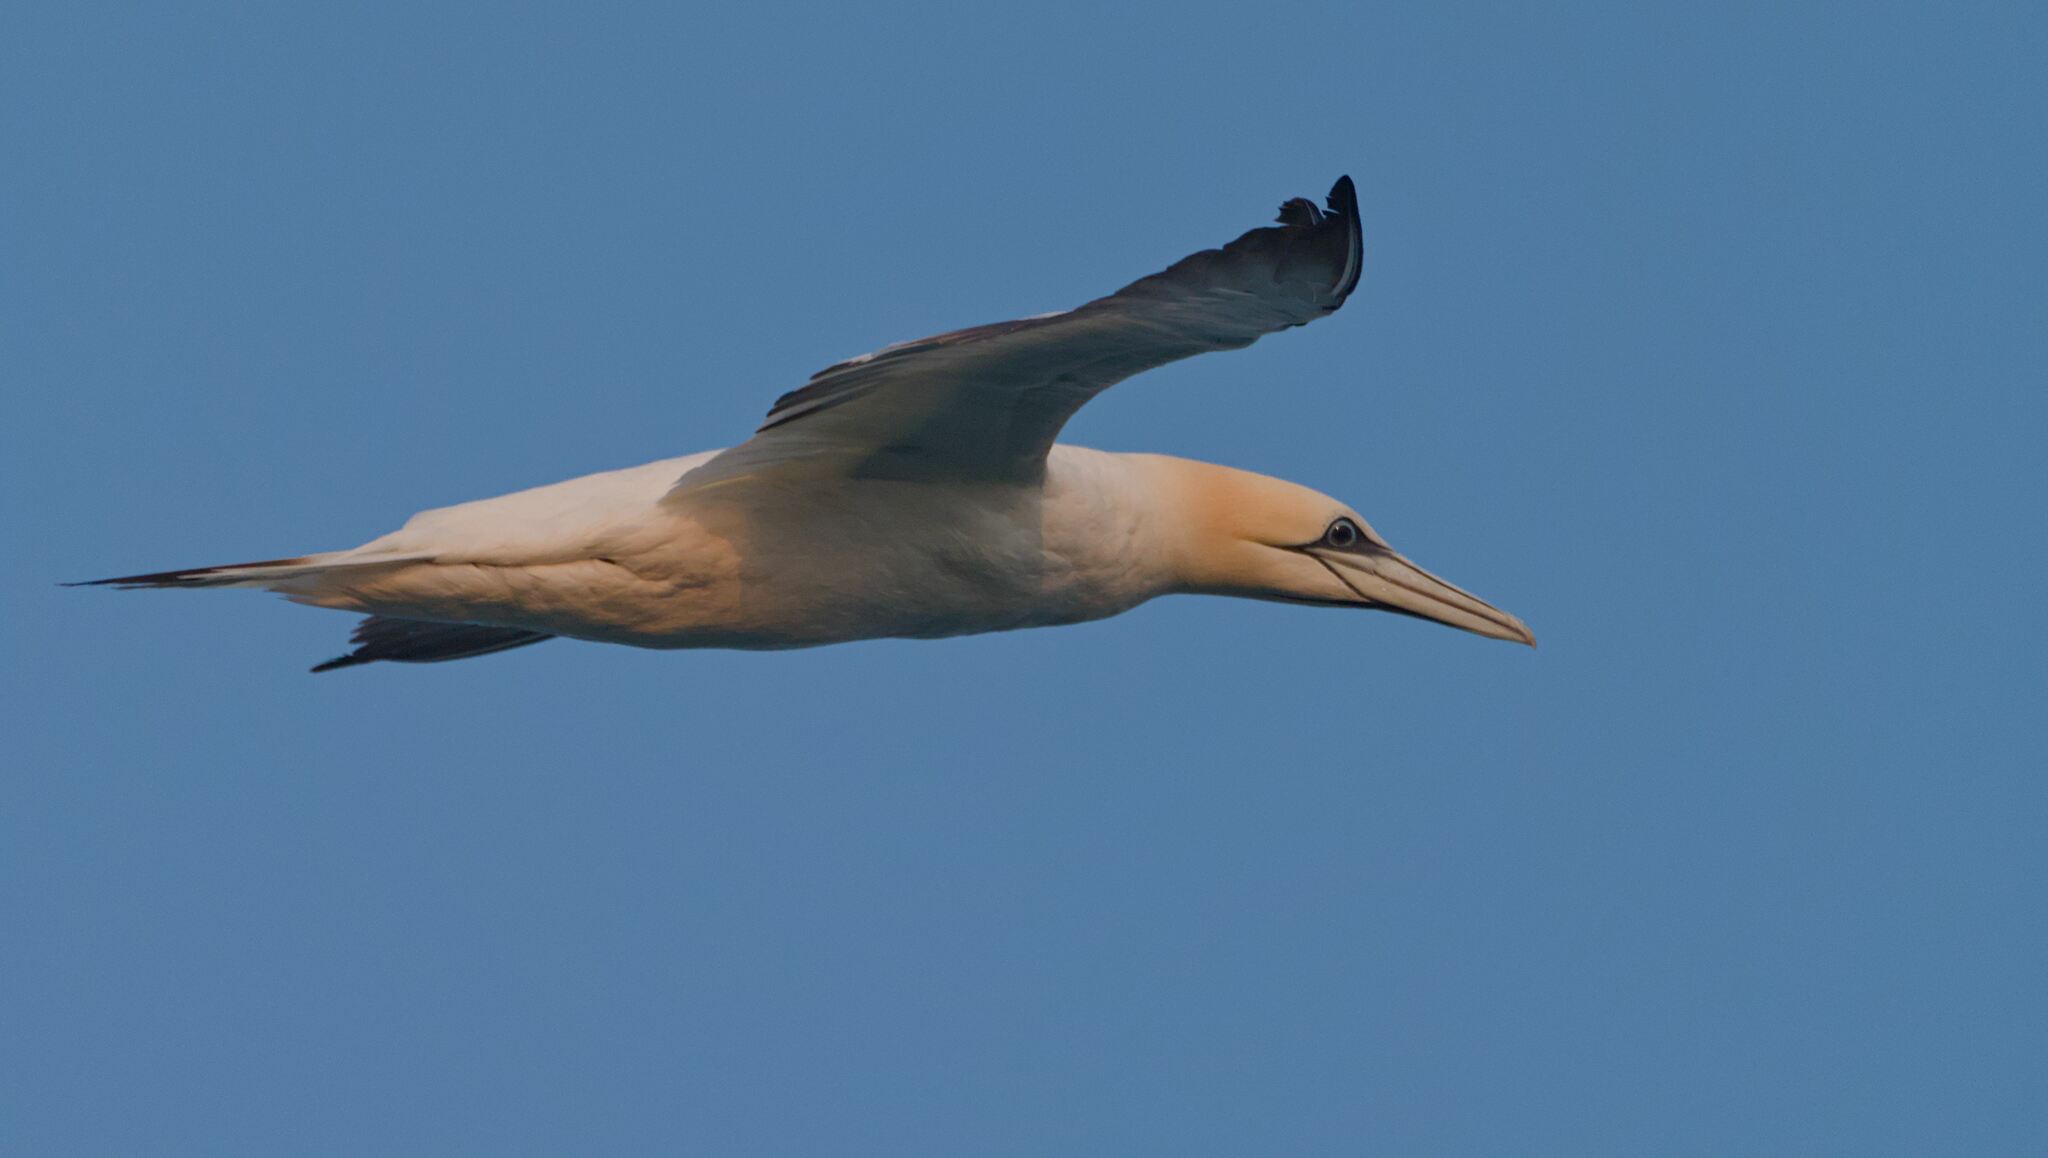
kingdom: Animalia
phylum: Chordata
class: Aves
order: Suliformes
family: Sulidae
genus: Morus
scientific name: Morus bassanus
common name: Northern gannet
